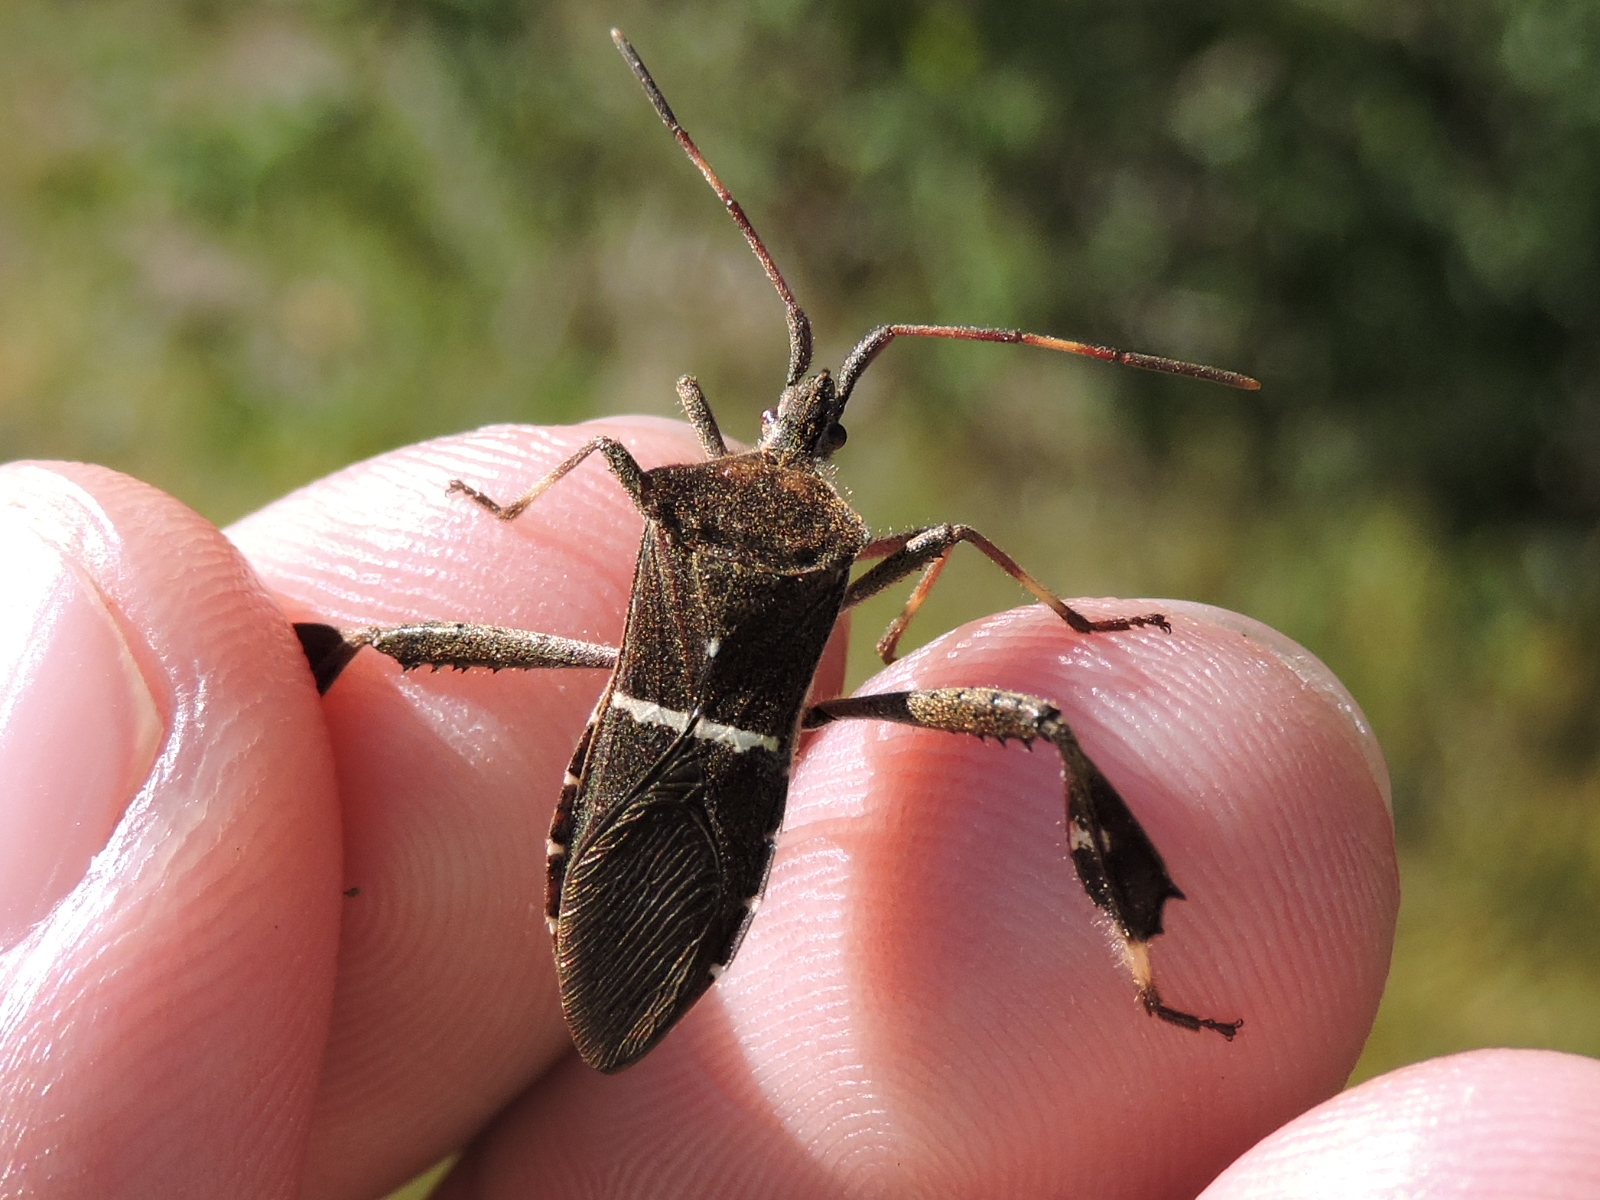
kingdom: Animalia
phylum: Arthropoda
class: Insecta
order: Hemiptera
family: Coreidae
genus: Leptoglossus
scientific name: Leptoglossus phyllopus
